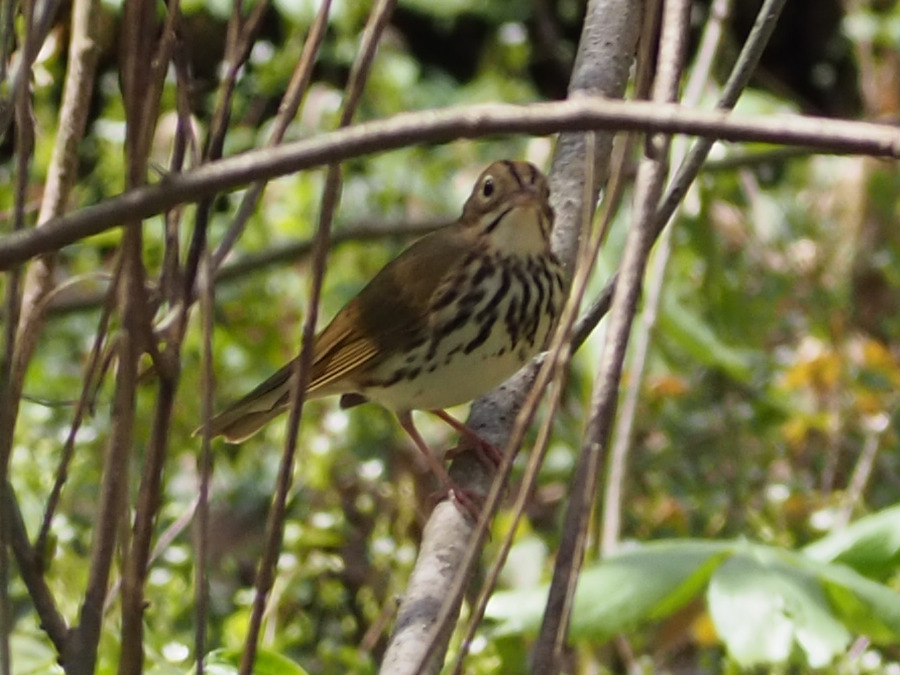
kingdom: Animalia
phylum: Chordata
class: Aves
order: Passeriformes
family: Parulidae
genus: Seiurus
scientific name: Seiurus aurocapilla
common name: Ovenbird
